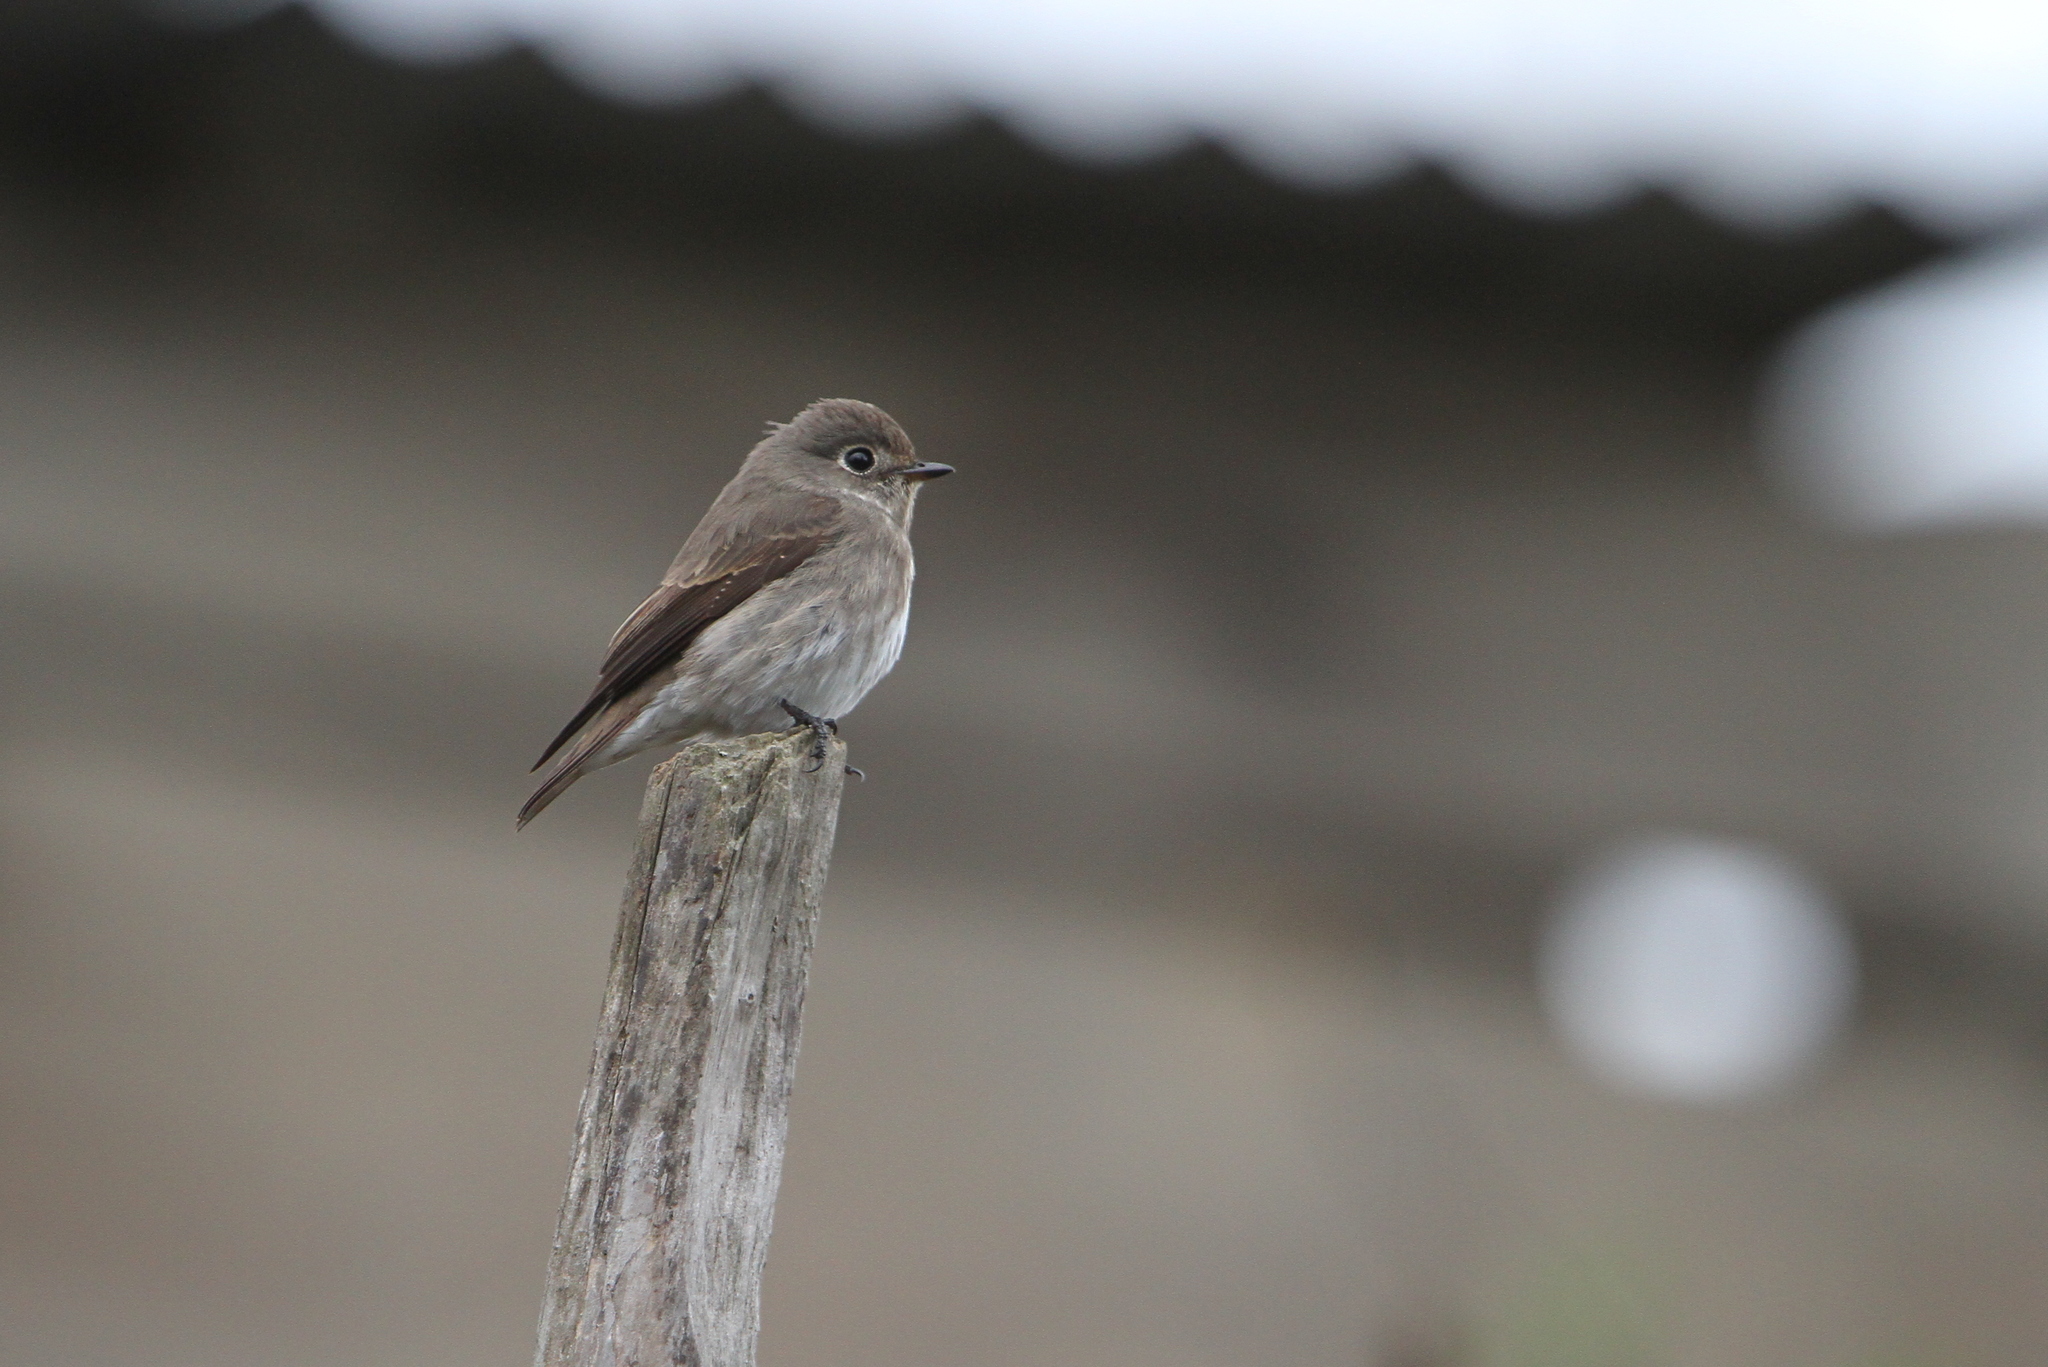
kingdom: Animalia
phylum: Chordata
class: Aves
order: Passeriformes
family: Muscicapidae
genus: Muscicapa
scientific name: Muscicapa sibirica
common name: Dark-sided flycatcher
